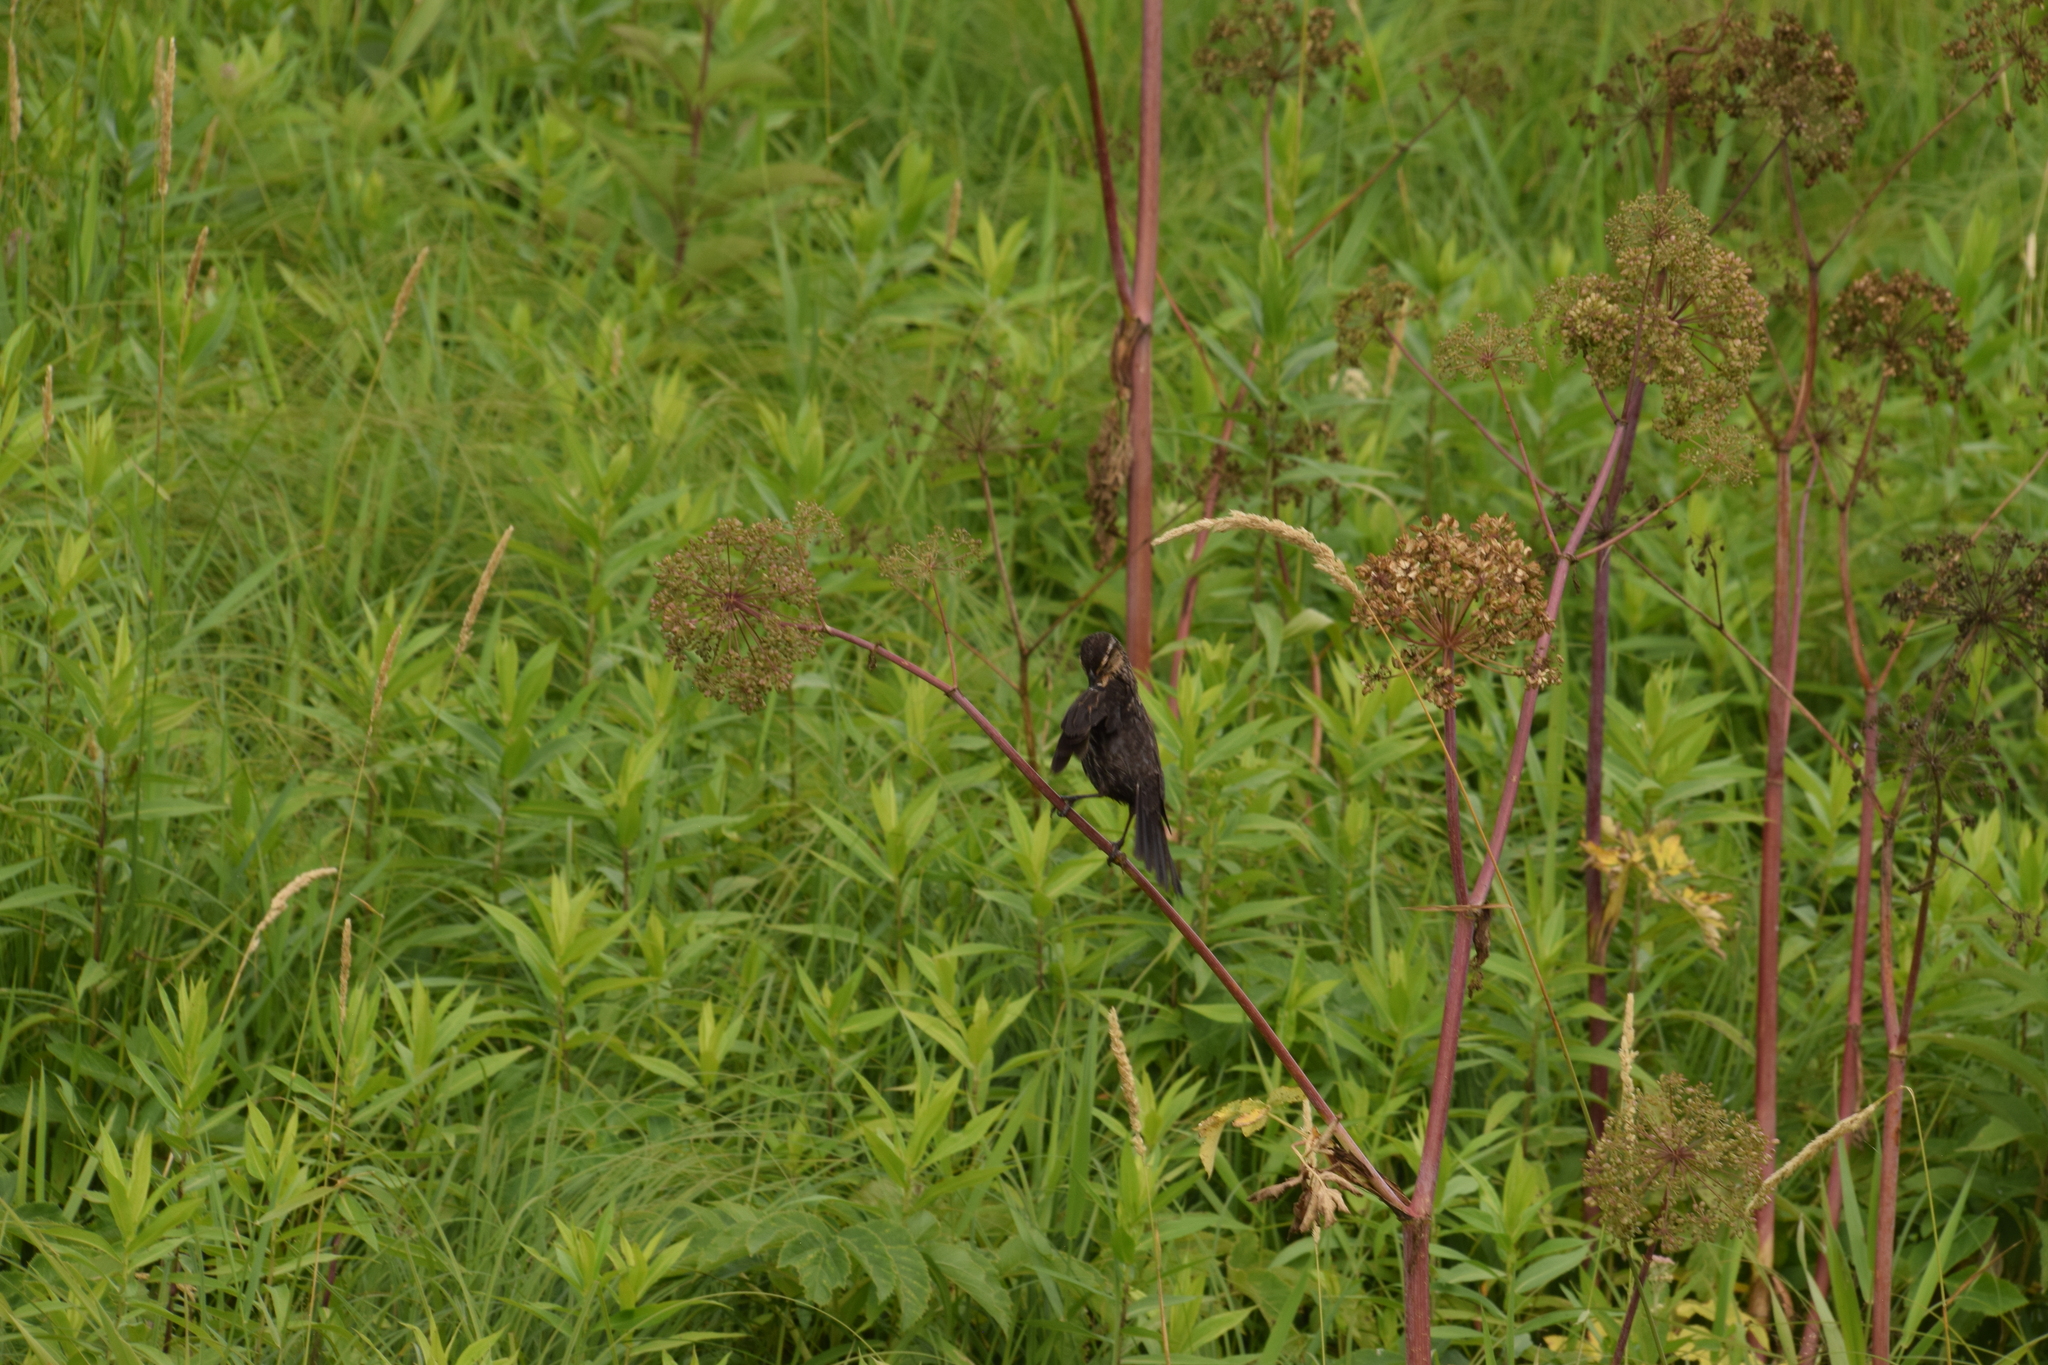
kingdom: Animalia
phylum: Chordata
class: Aves
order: Passeriformes
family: Icteridae
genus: Agelaius
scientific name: Agelaius phoeniceus
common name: Red-winged blackbird
